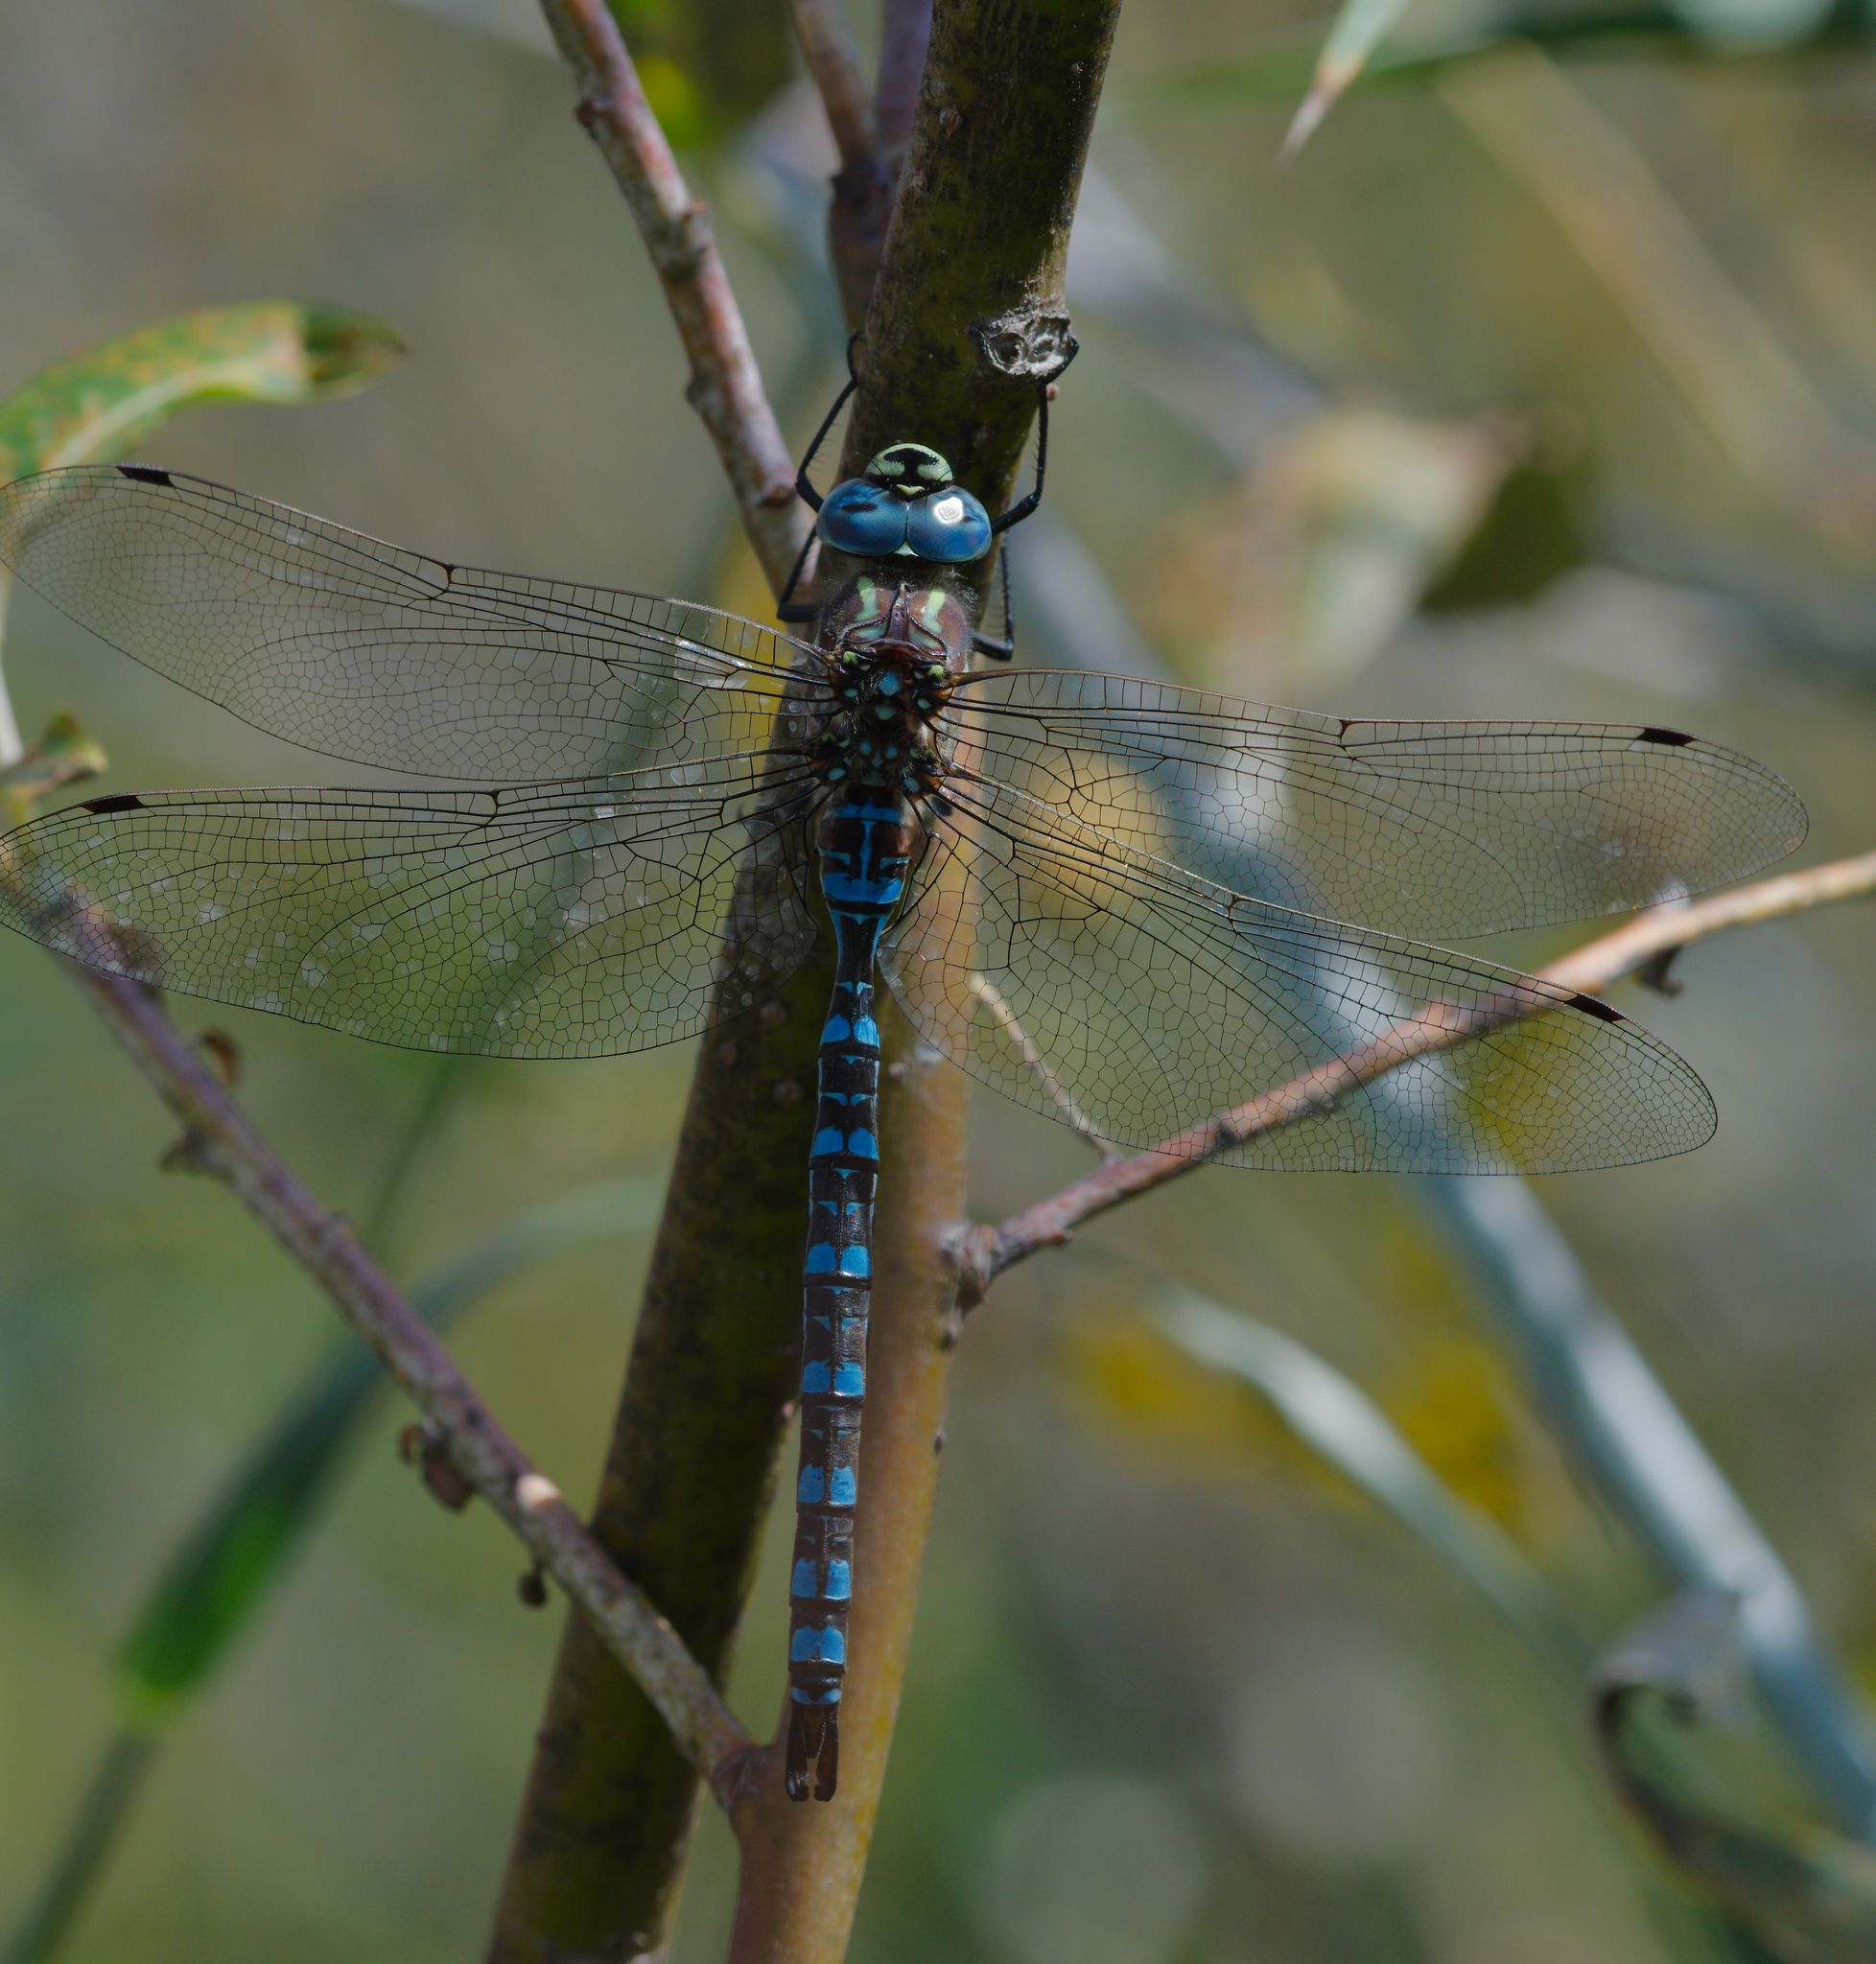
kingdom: Animalia
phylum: Arthropoda
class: Insecta
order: Odonata
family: Aeshnidae
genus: Aeshna
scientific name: Aeshna palmata
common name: Paddle-tailed darner
